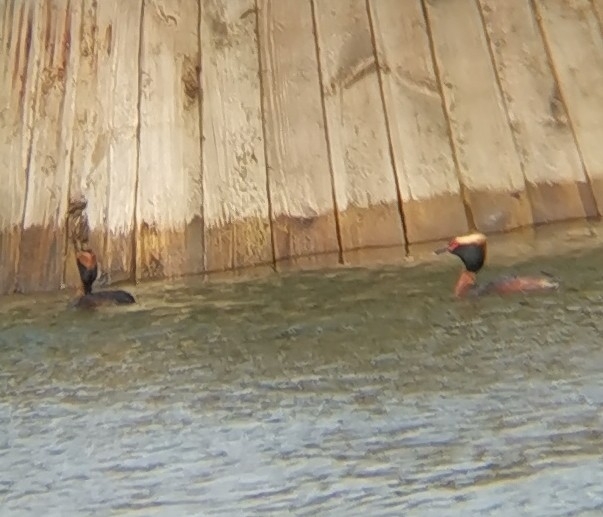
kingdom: Animalia
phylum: Chordata
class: Aves
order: Podicipediformes
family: Podicipedidae
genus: Podiceps
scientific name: Podiceps auritus
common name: Horned grebe
